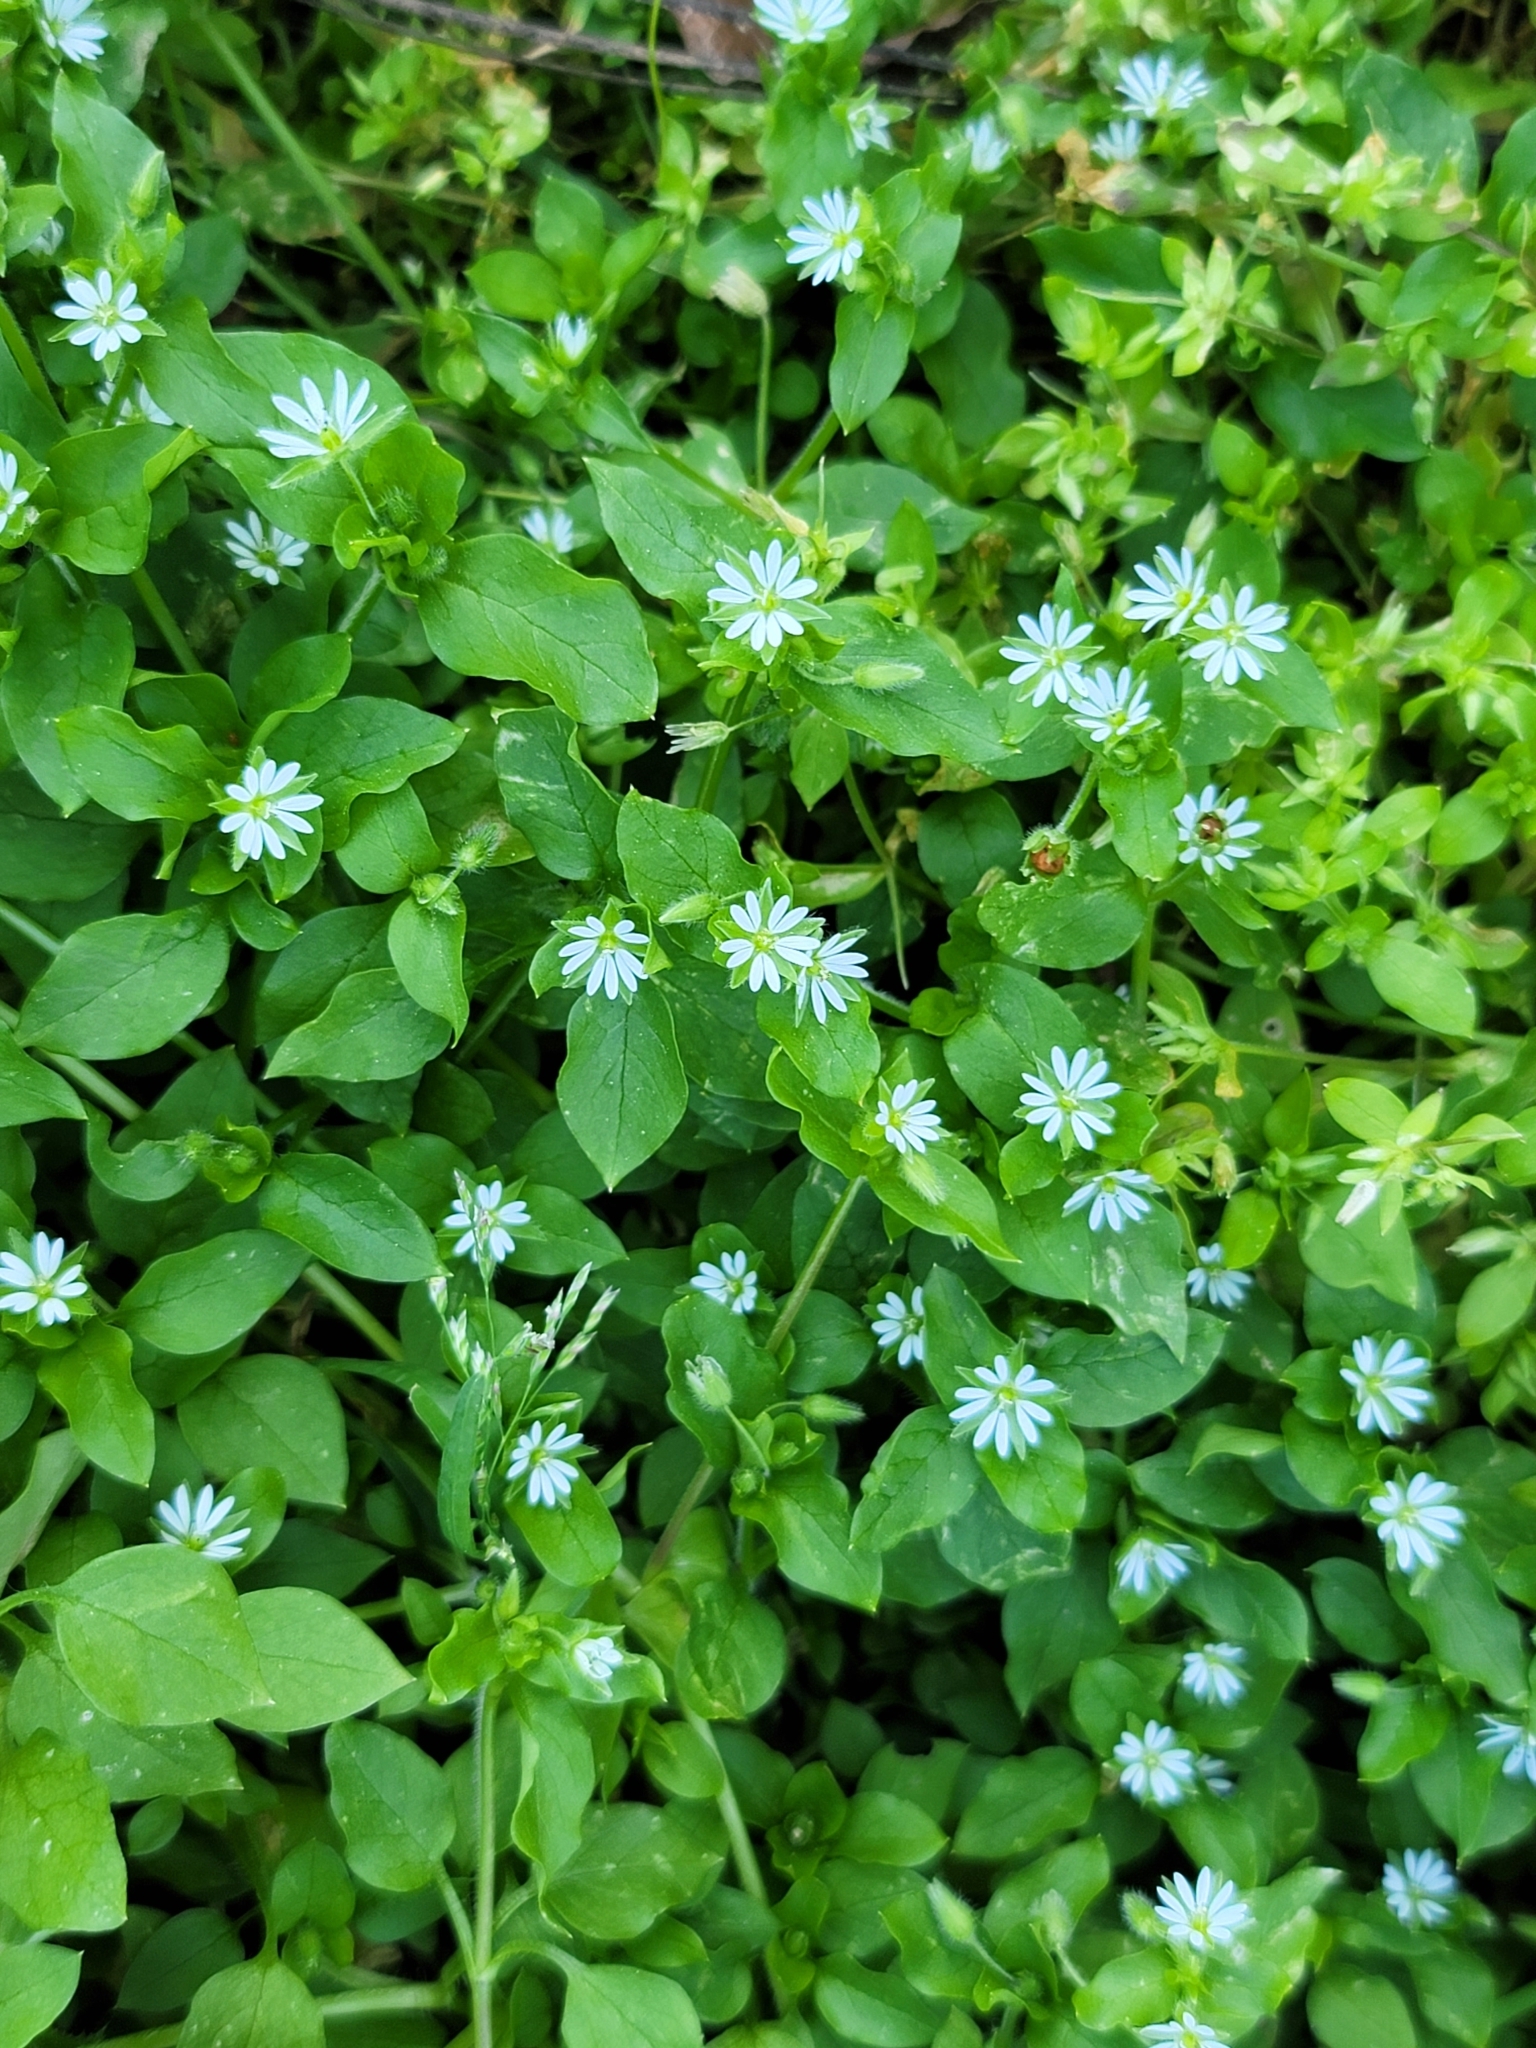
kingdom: Plantae
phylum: Tracheophyta
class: Magnoliopsida
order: Caryophyllales
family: Caryophyllaceae
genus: Stellaria
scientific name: Stellaria media
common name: Common chickweed
